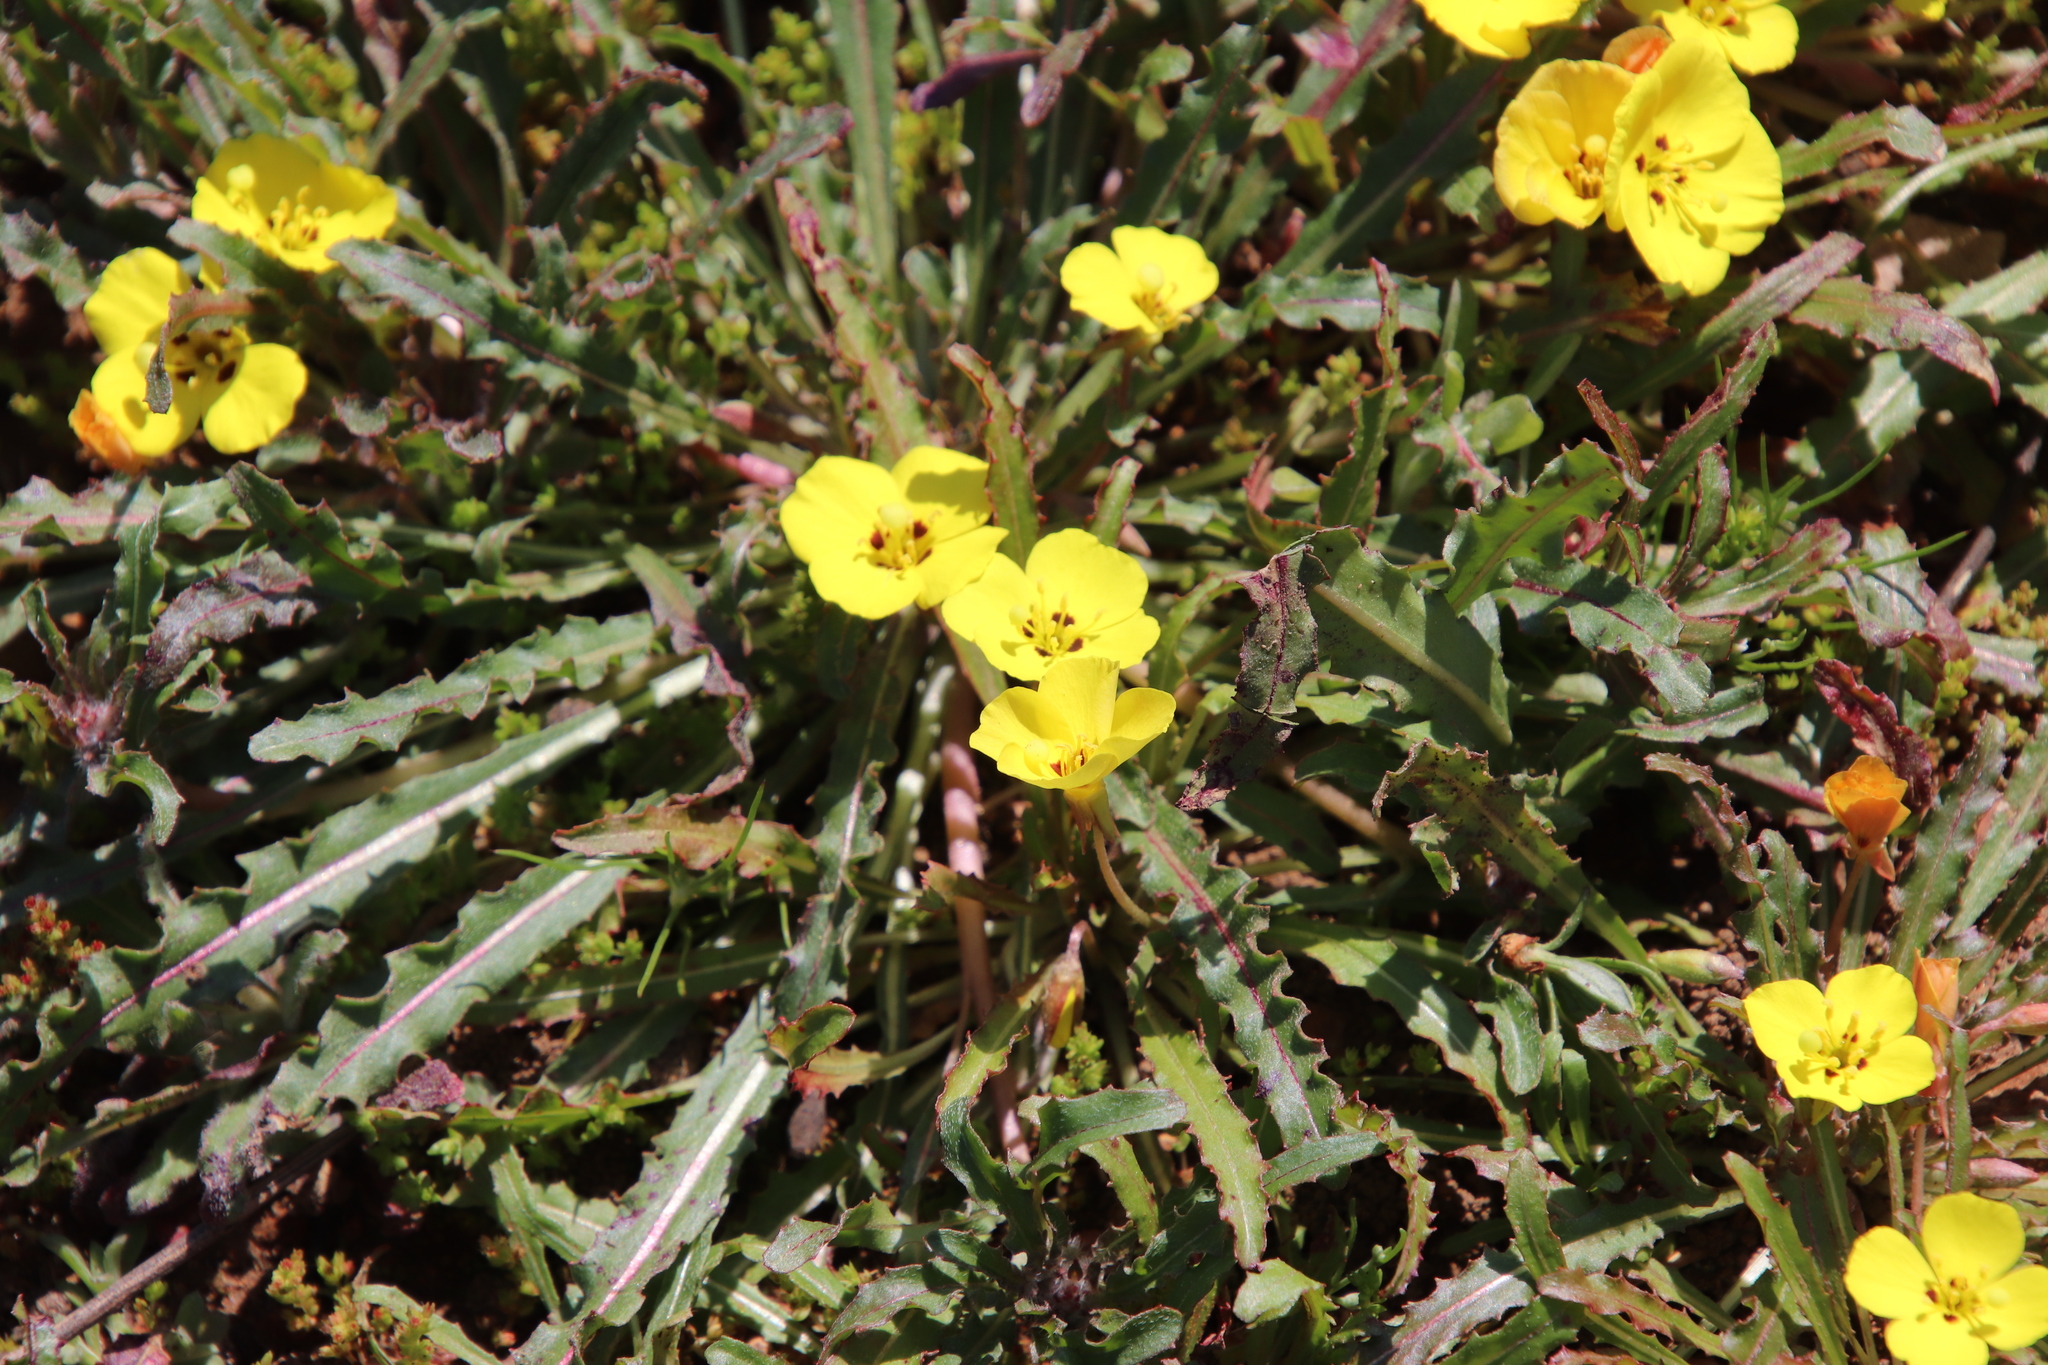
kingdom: Plantae
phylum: Tracheophyta
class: Magnoliopsida
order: Myrtales
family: Onagraceae
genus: Camissoniopsis
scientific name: Camissoniopsis bistorta
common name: Southern suncup
